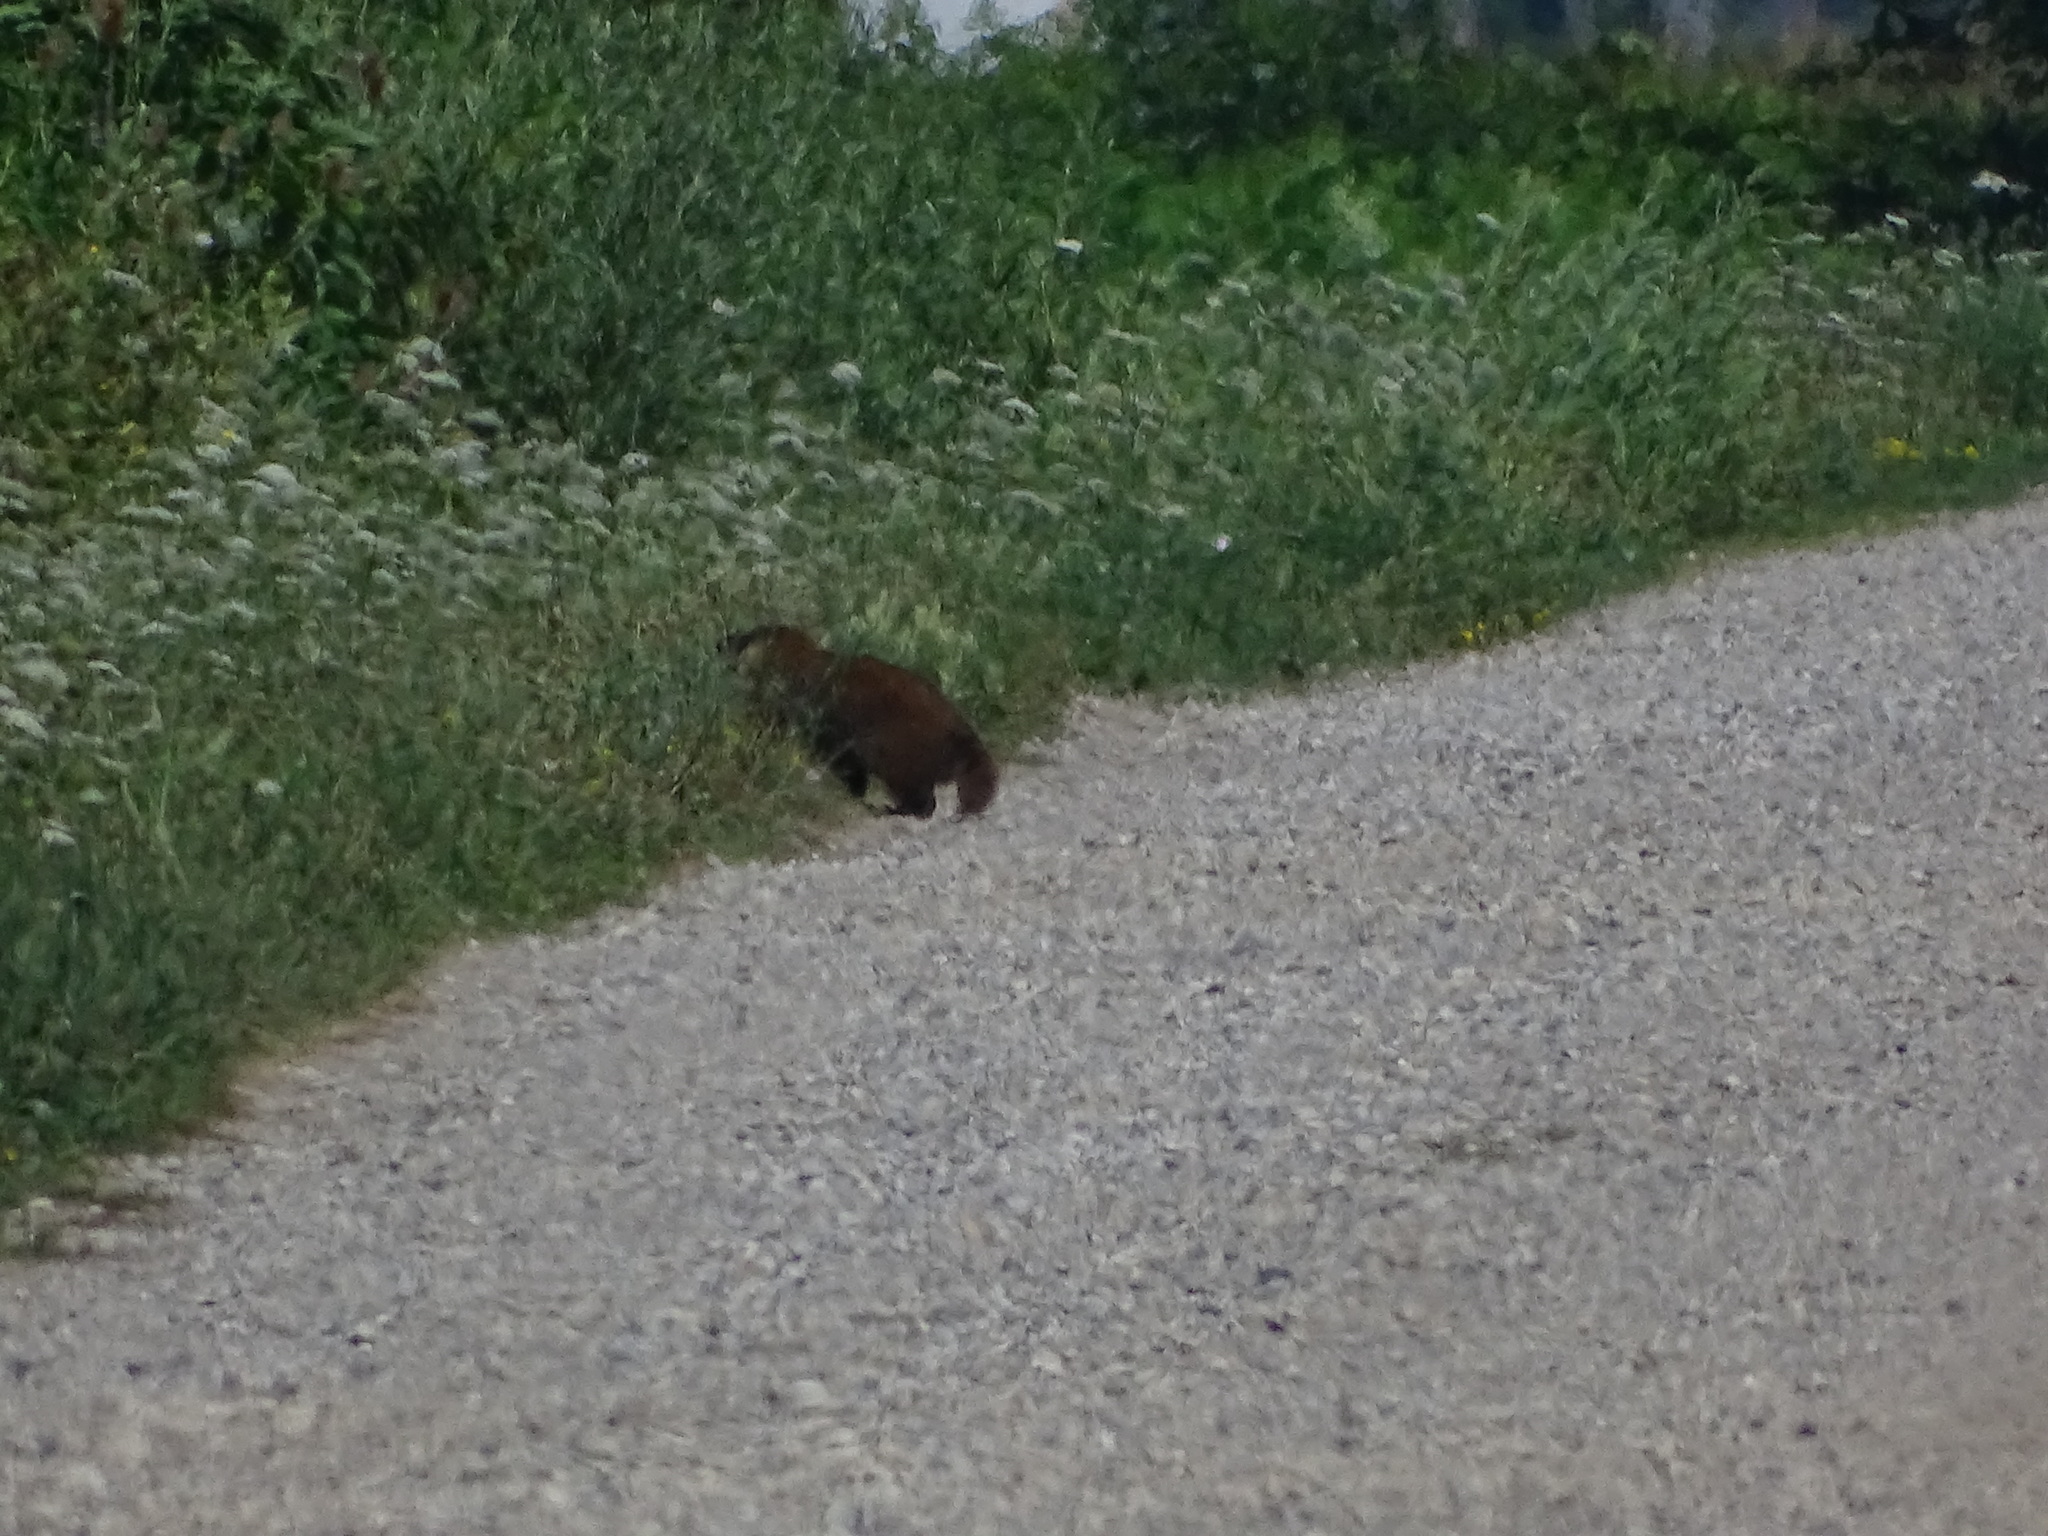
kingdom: Animalia
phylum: Chordata
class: Mammalia
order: Rodentia
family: Sciuridae
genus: Marmota
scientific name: Marmota monax
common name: Groundhog
